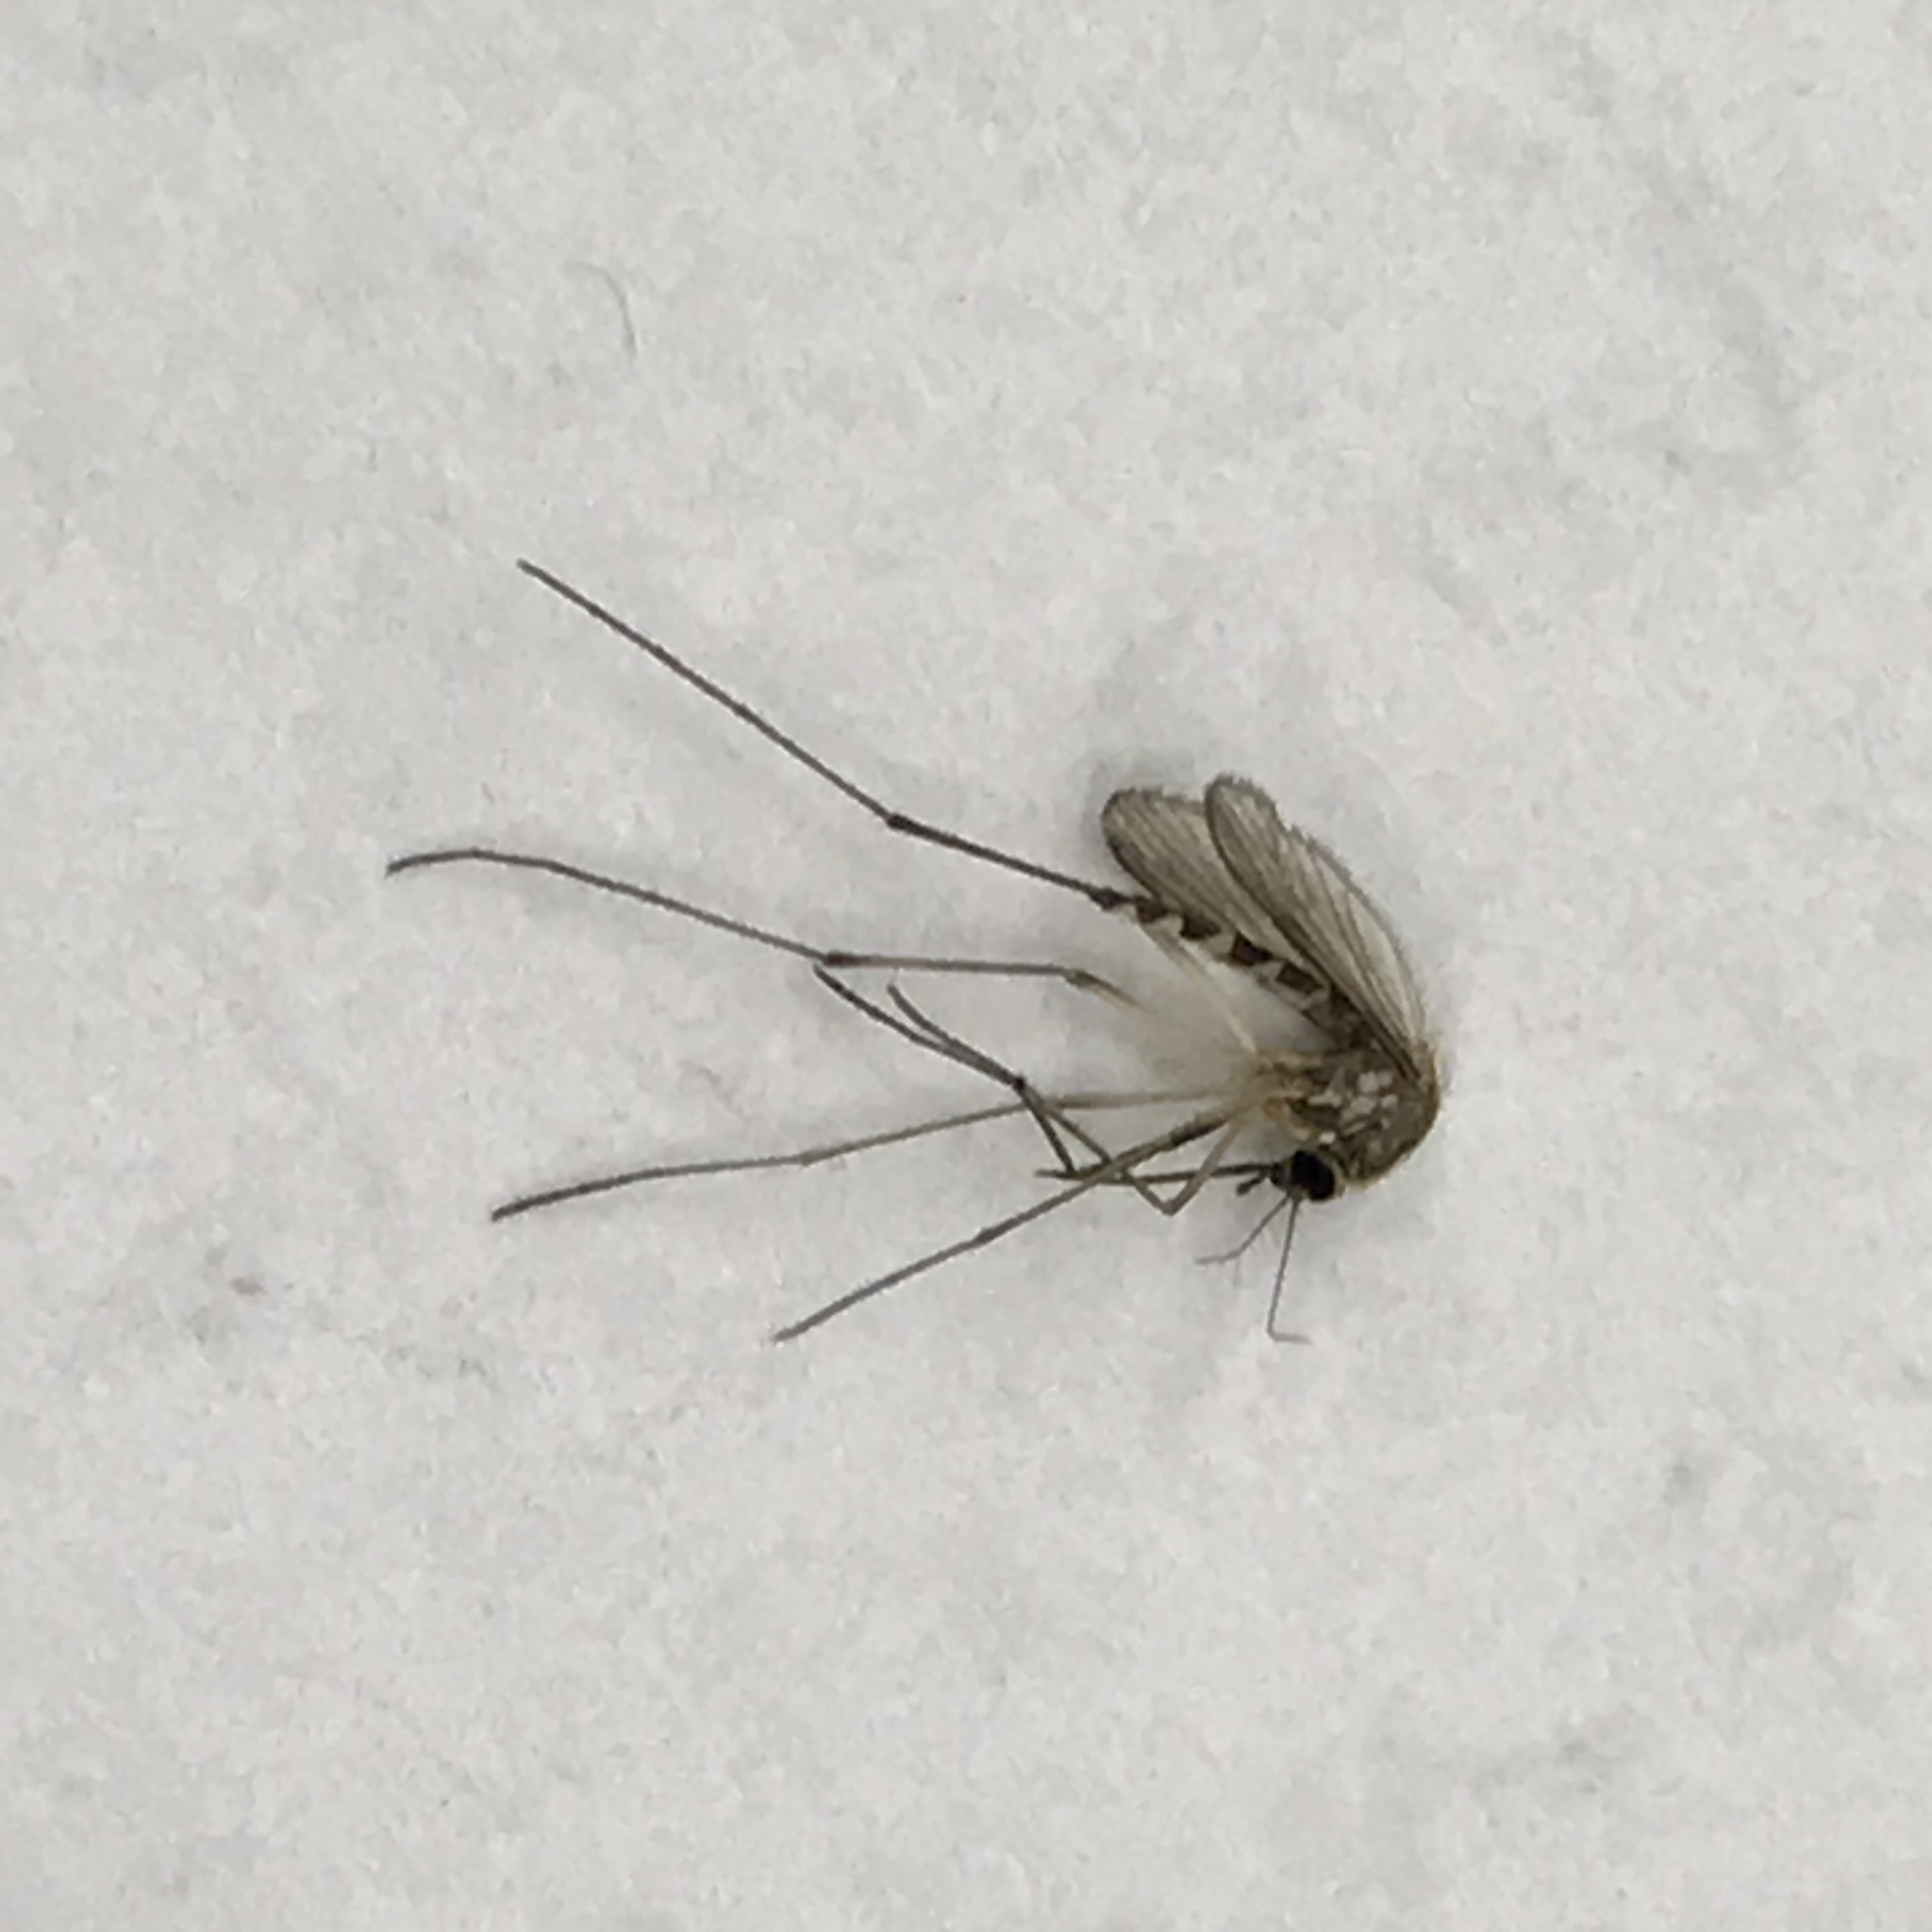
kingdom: Animalia
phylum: Arthropoda
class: Insecta
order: Diptera
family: Culicidae
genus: Aedes
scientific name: Aedes trivittatus
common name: Plains floodwater mosquito
